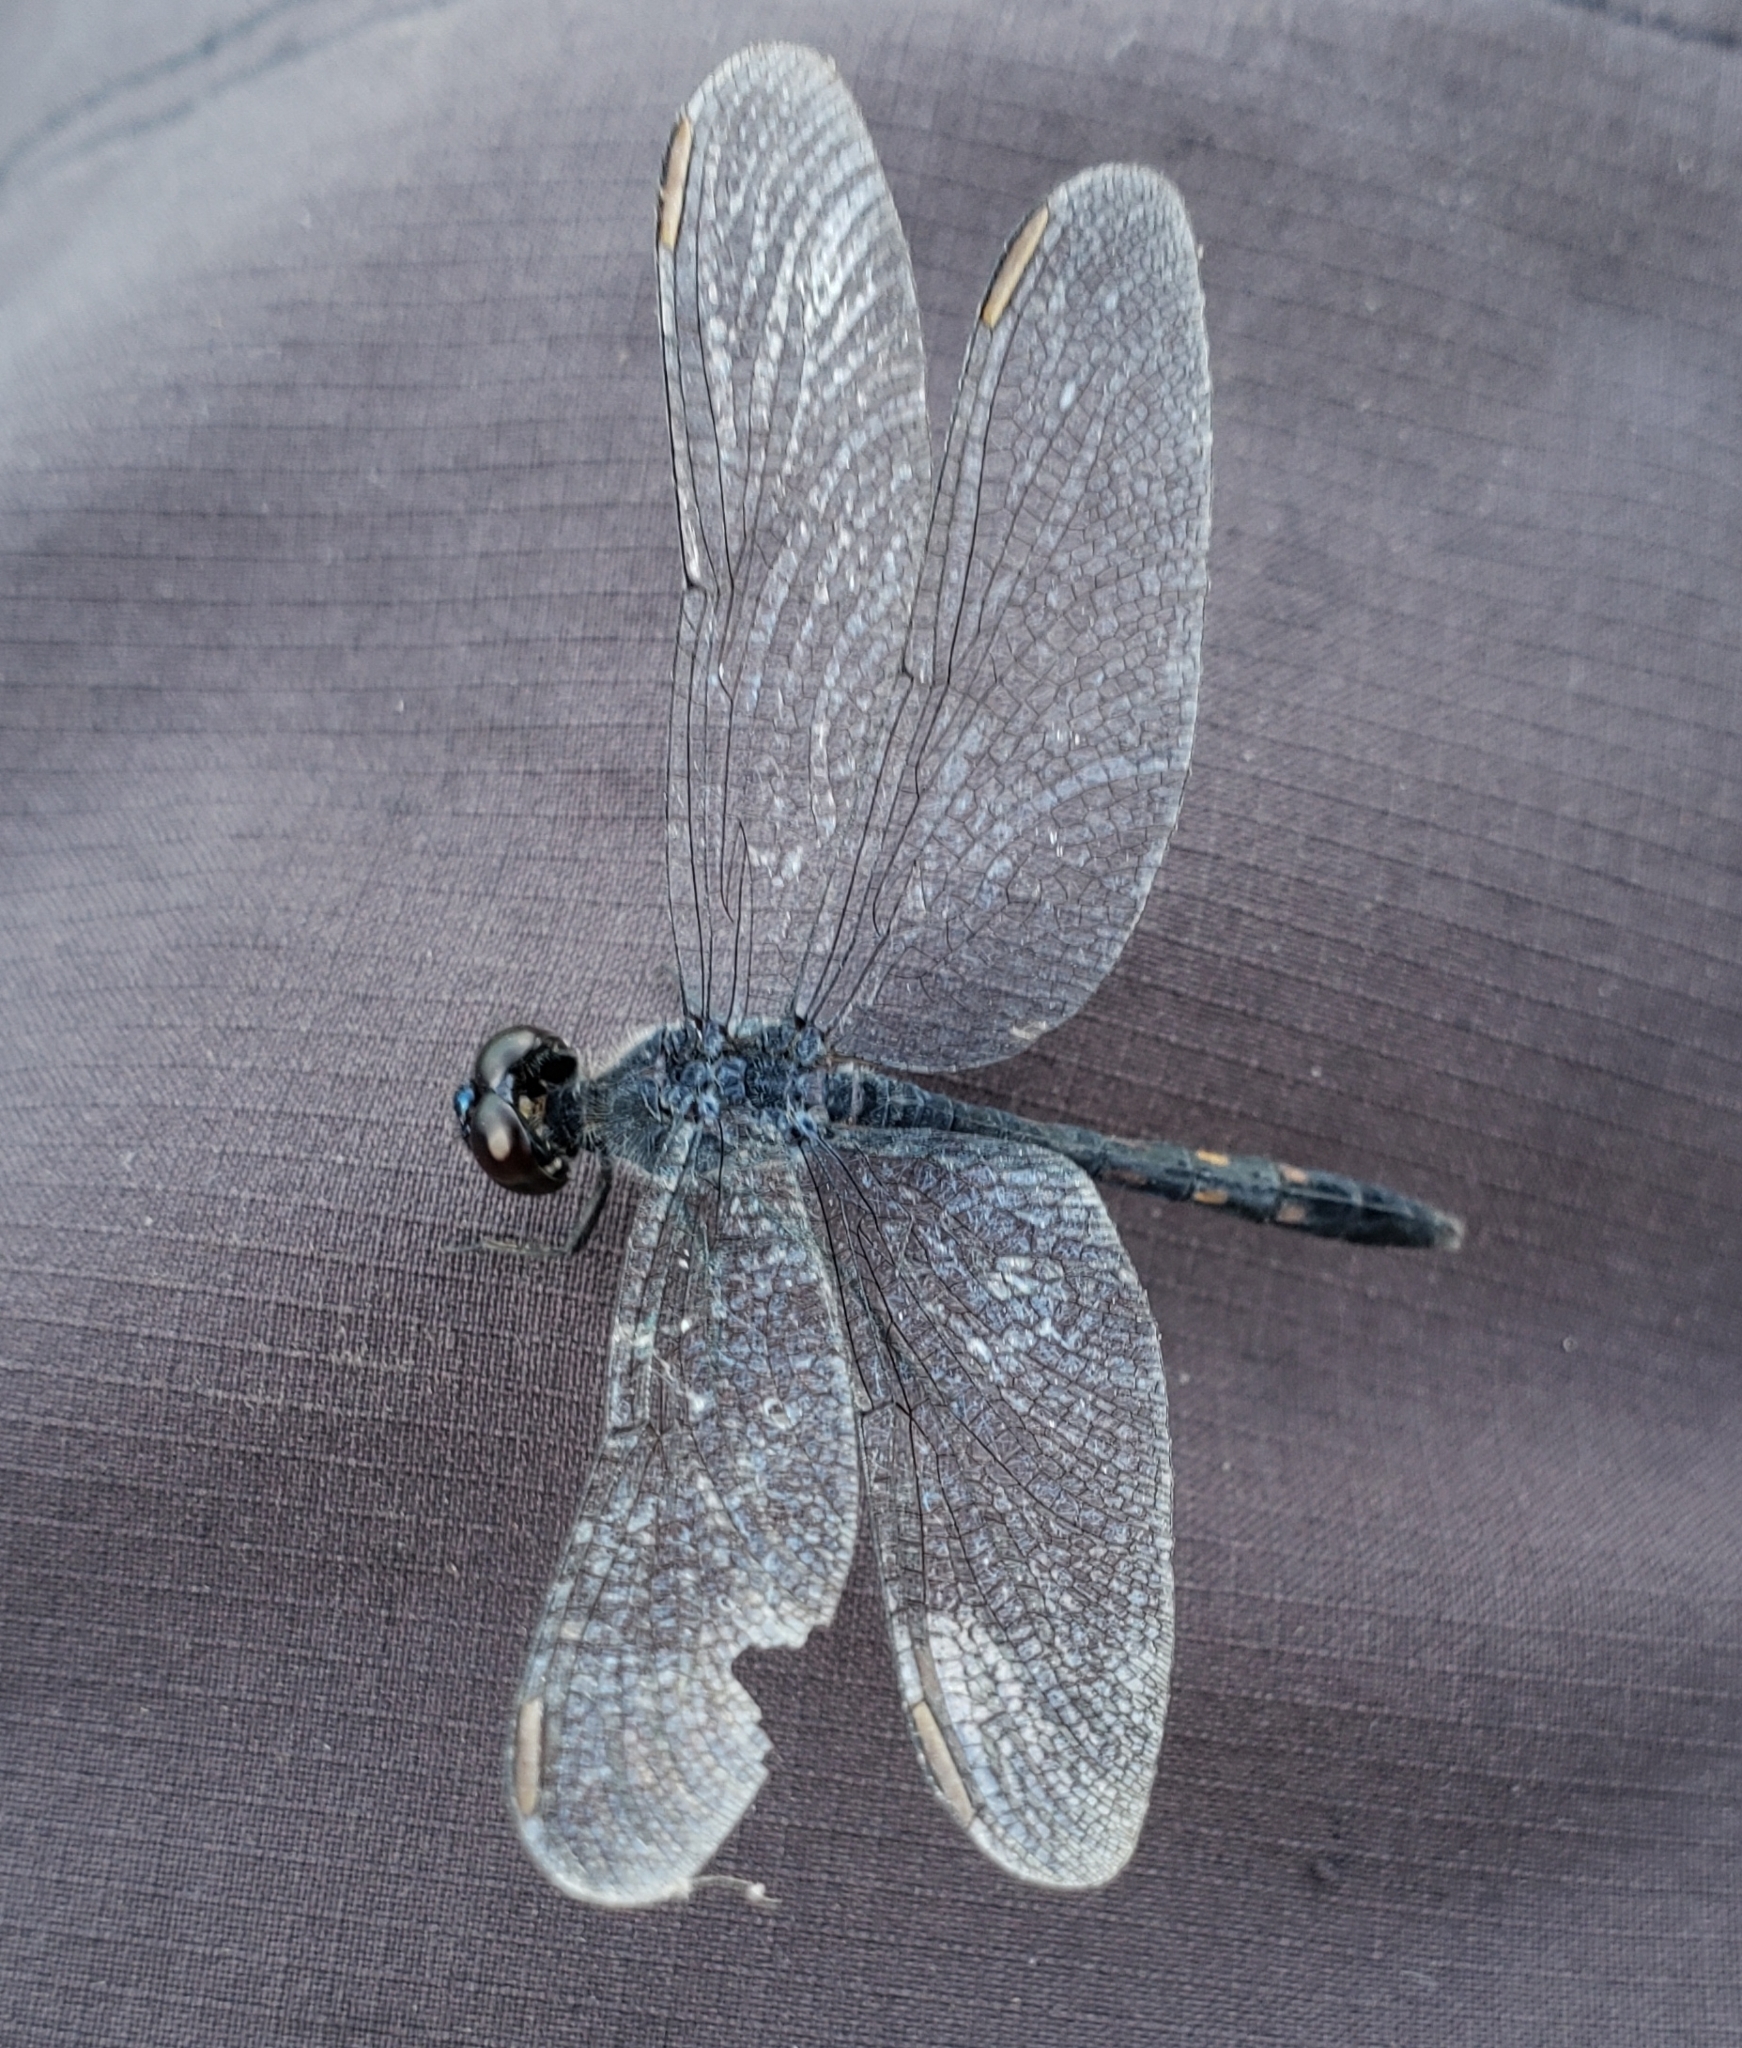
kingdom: Animalia
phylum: Arthropoda
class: Insecta
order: Odonata
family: Libellulidae
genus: Erythrodiplax
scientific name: Erythrodiplax berenice
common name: Seaside dragonlet
